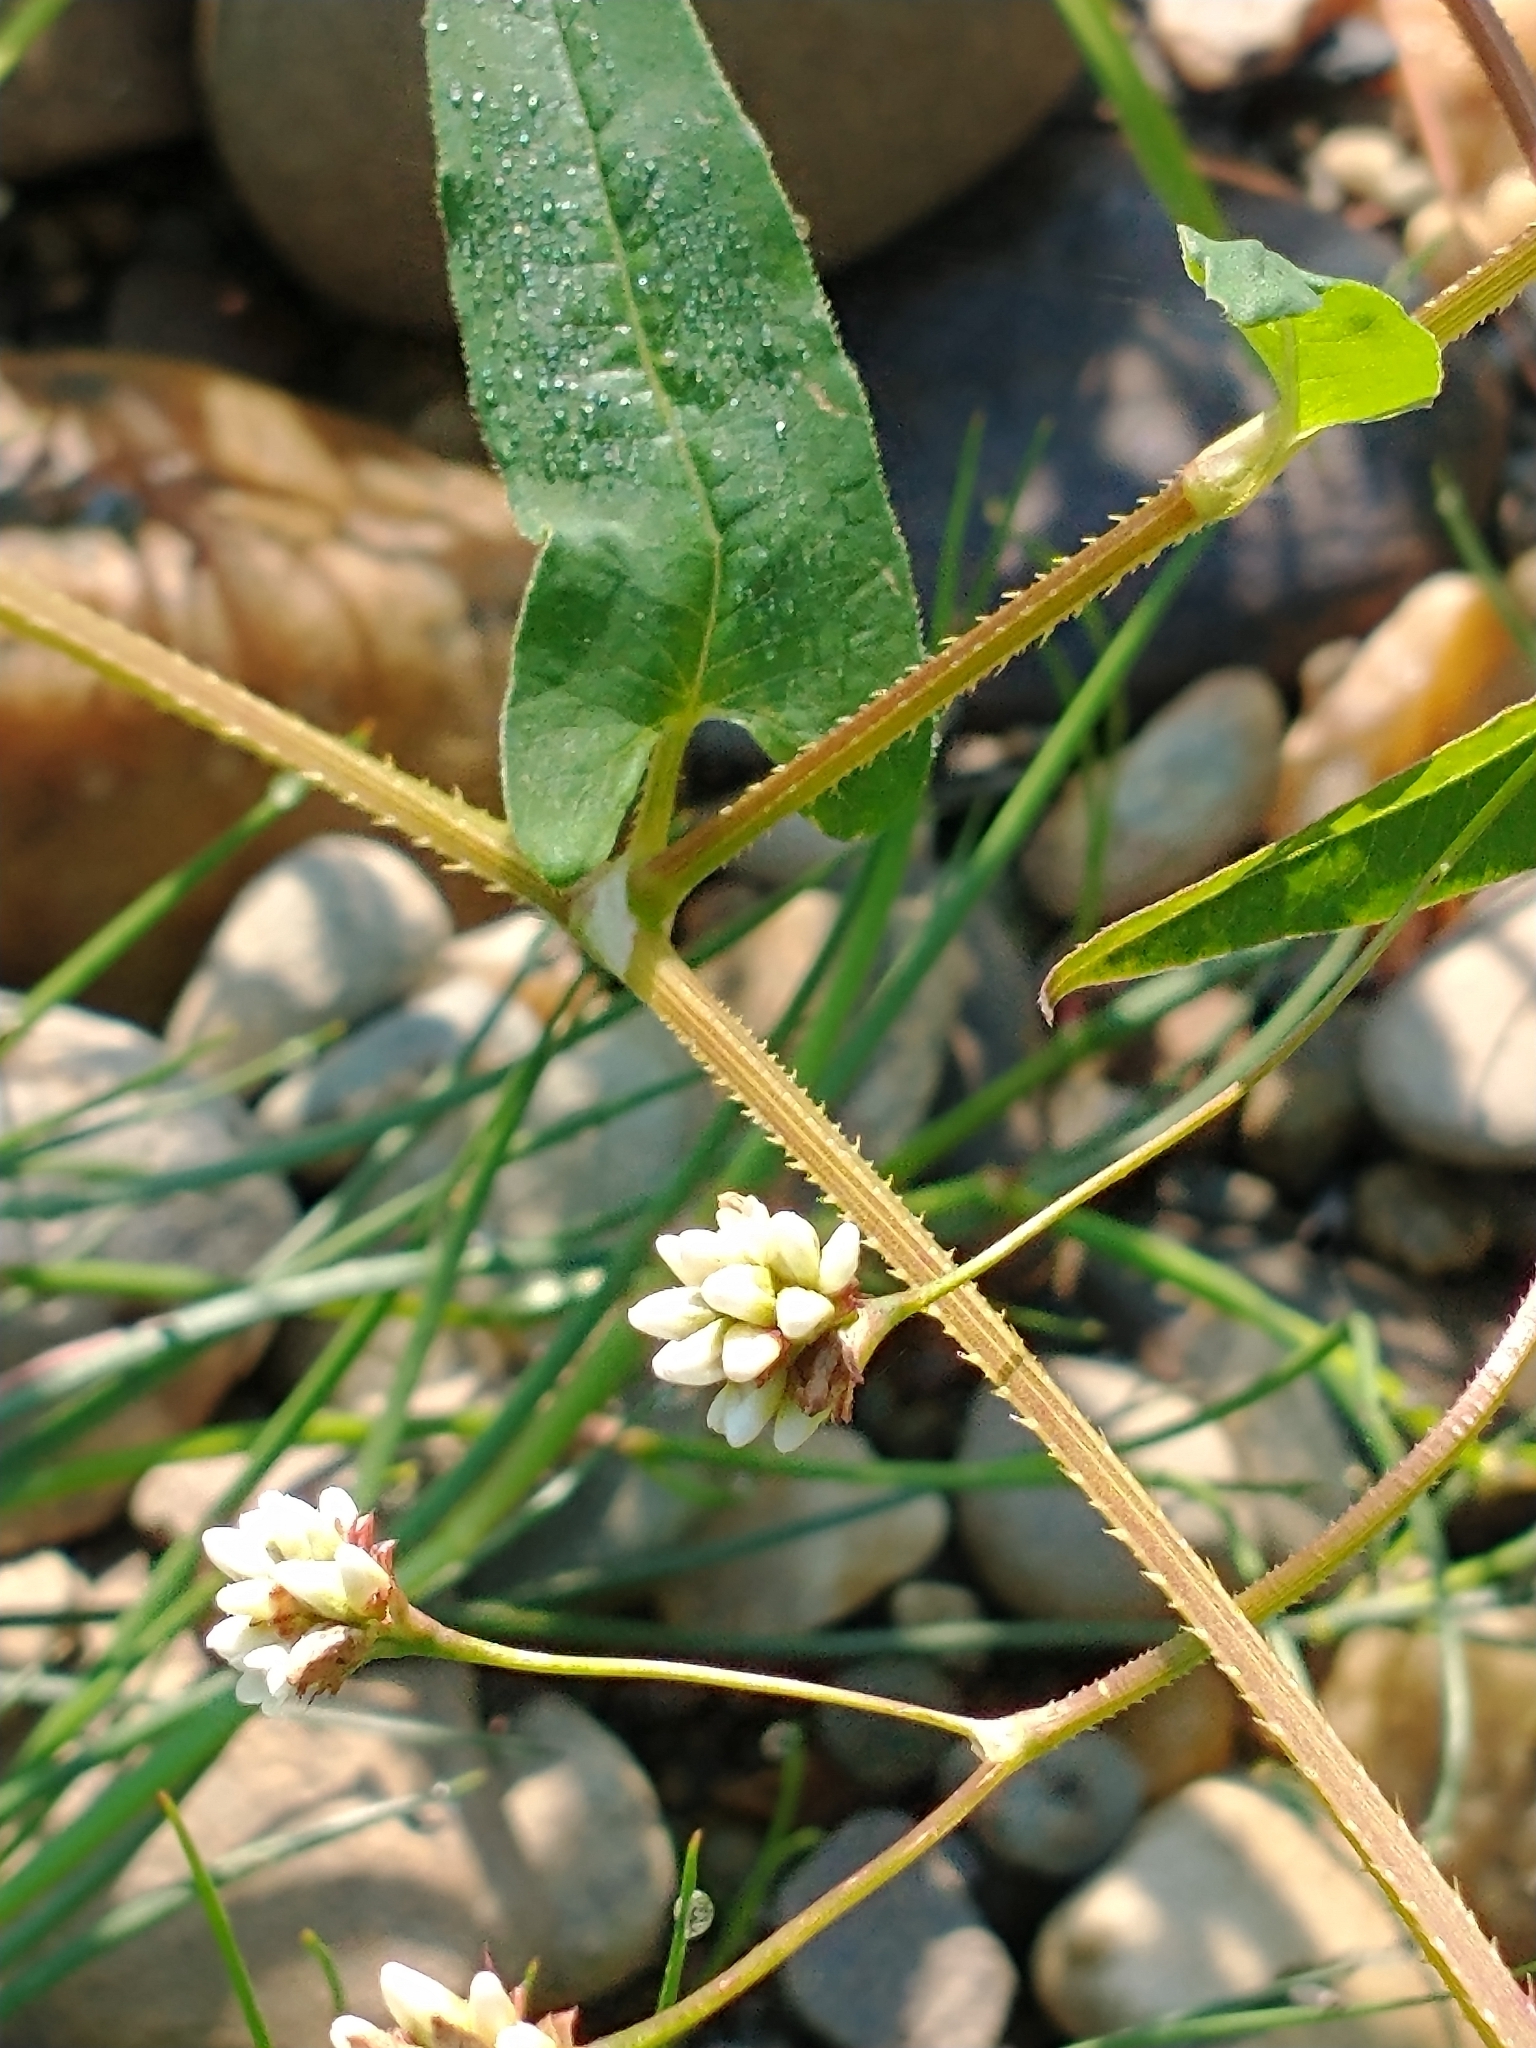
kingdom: Plantae
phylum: Tracheophyta
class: Magnoliopsida
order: Caryophyllales
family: Polygonaceae
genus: Persicaria
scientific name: Persicaria sagittata
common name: American tearthumb
